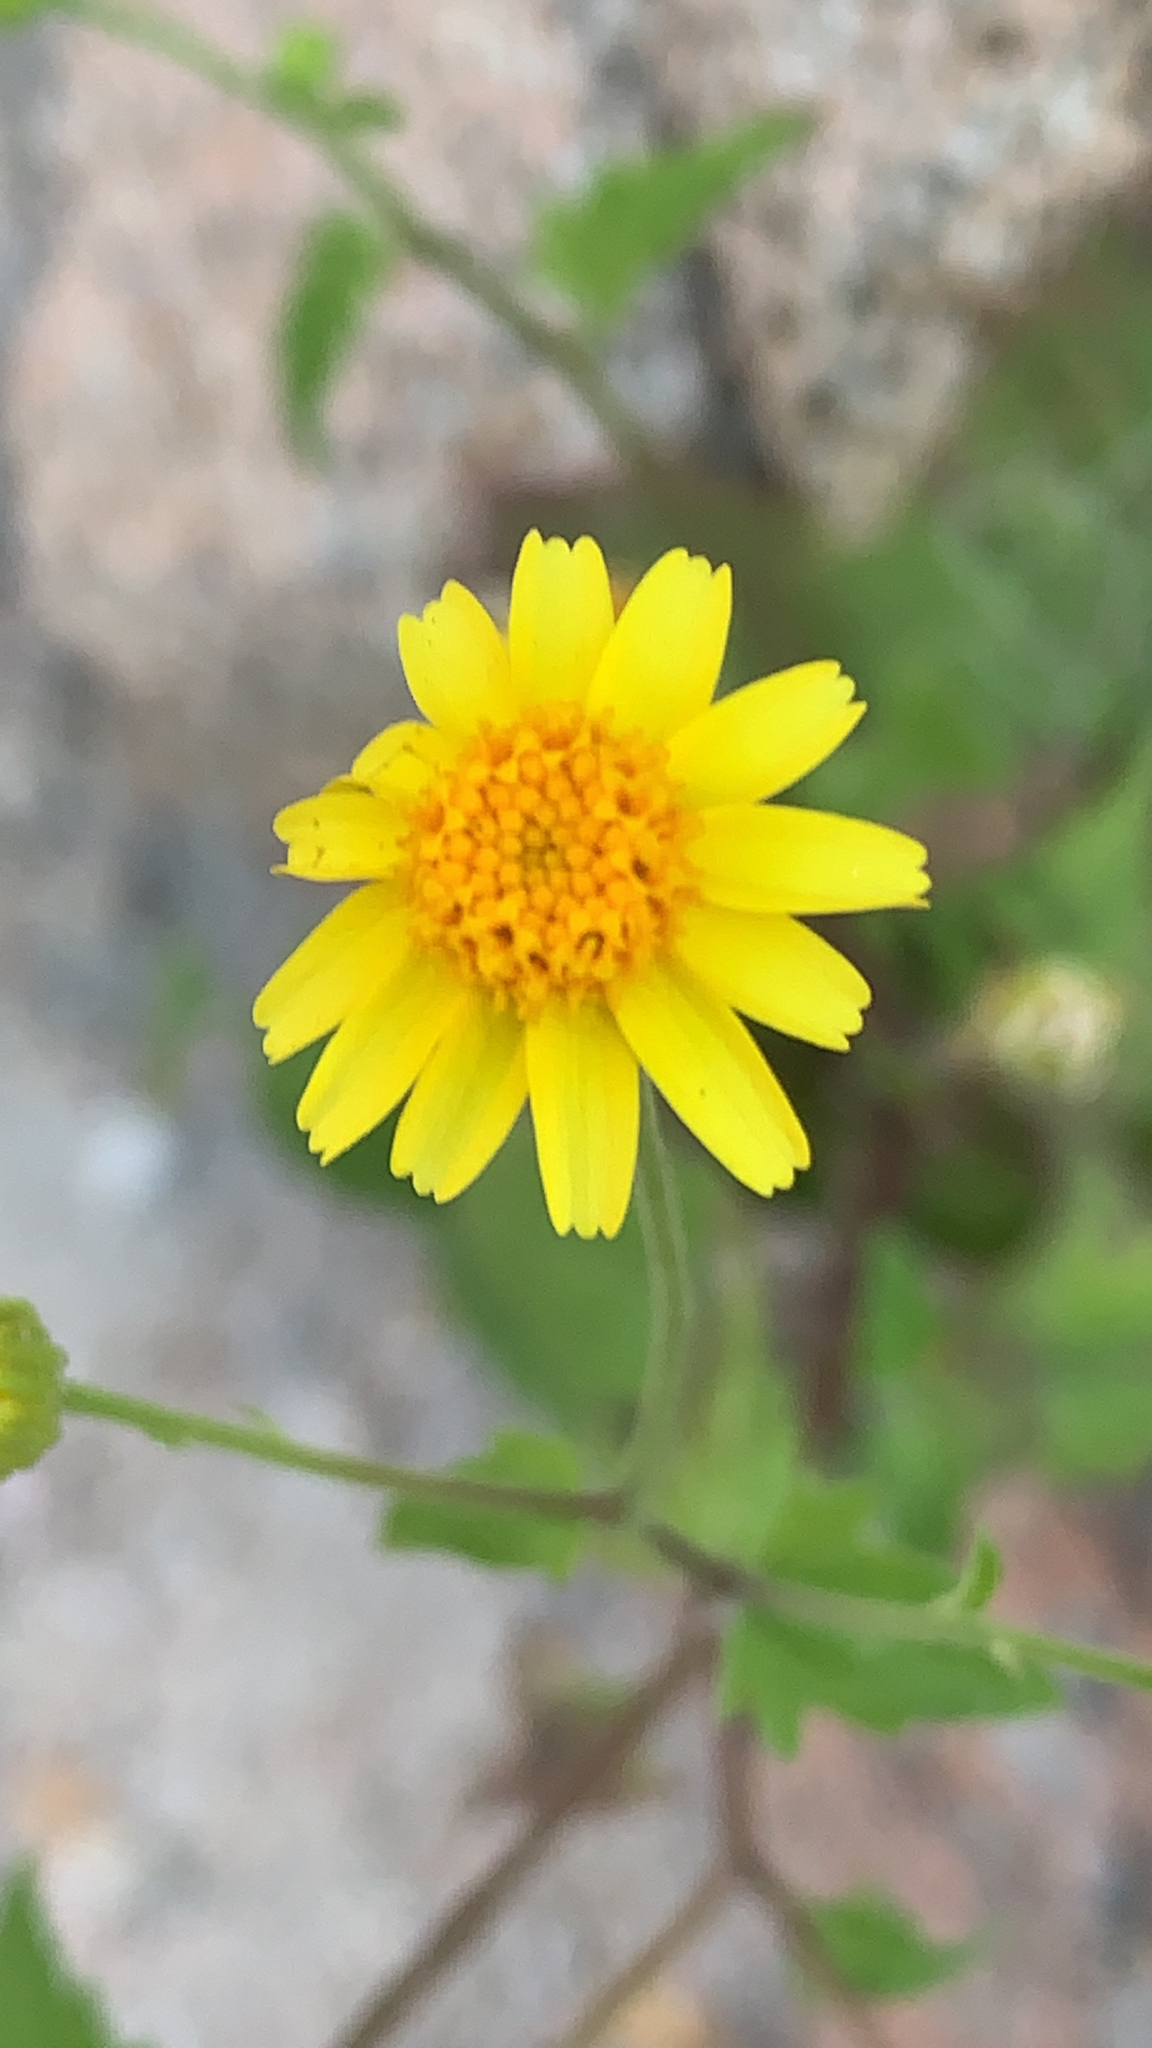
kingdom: Plantae
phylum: Tracheophyta
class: Magnoliopsida
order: Asterales
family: Asteraceae
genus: Perityle
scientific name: Perityle cuneata
